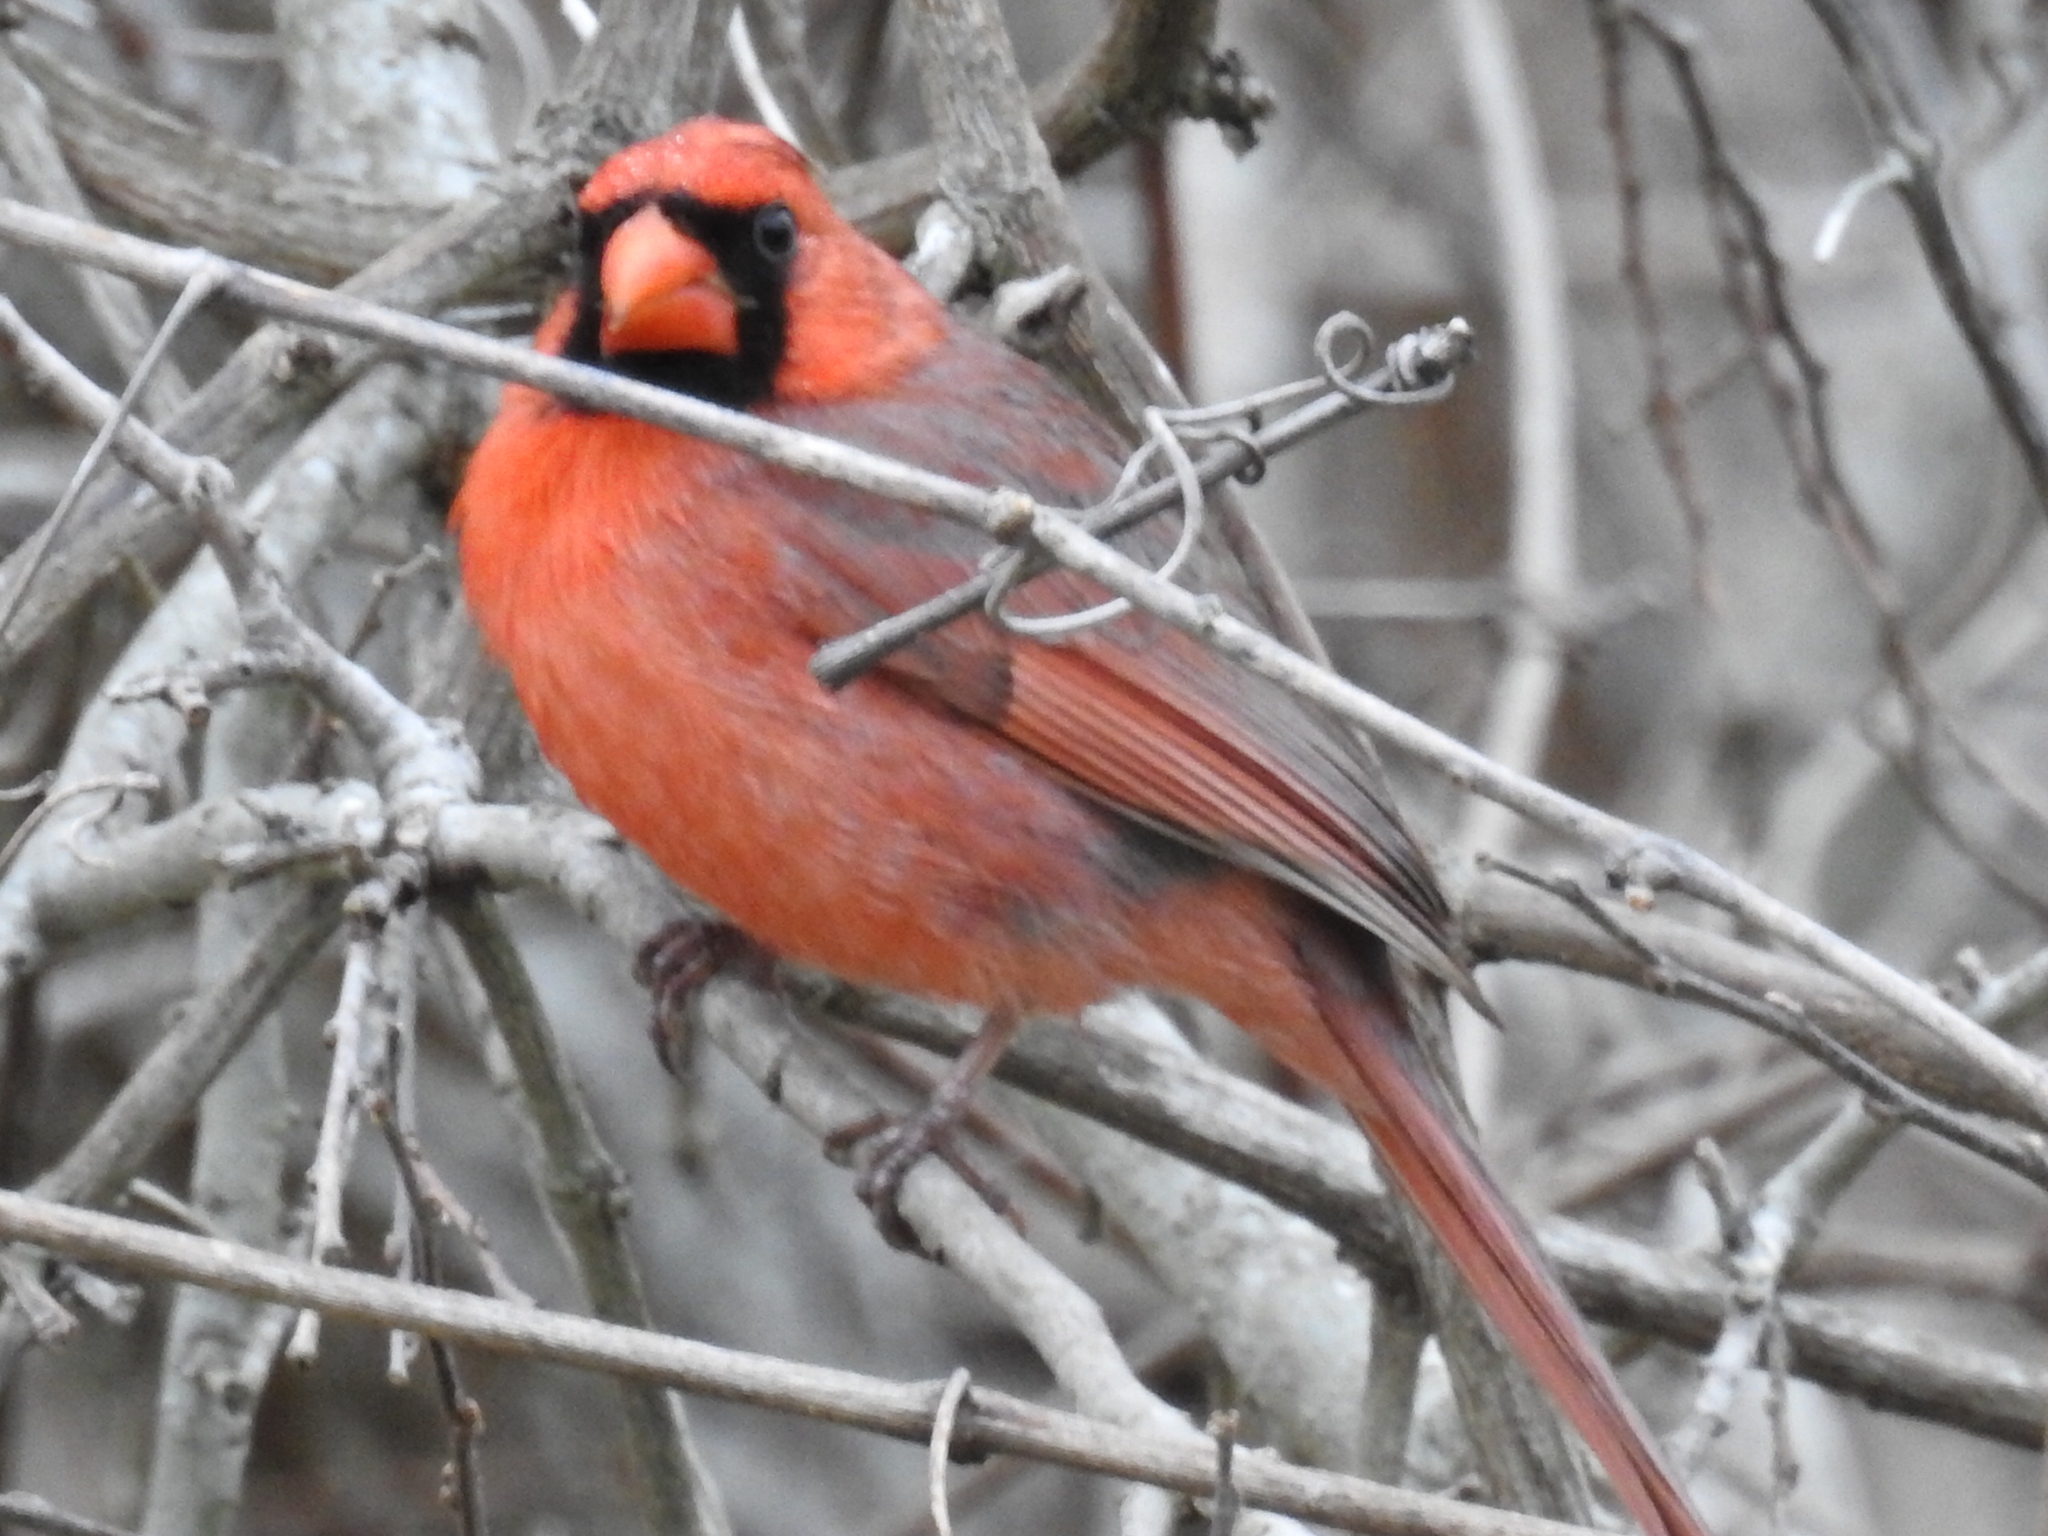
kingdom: Animalia
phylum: Chordata
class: Aves
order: Passeriformes
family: Cardinalidae
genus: Cardinalis
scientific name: Cardinalis cardinalis
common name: Northern cardinal
